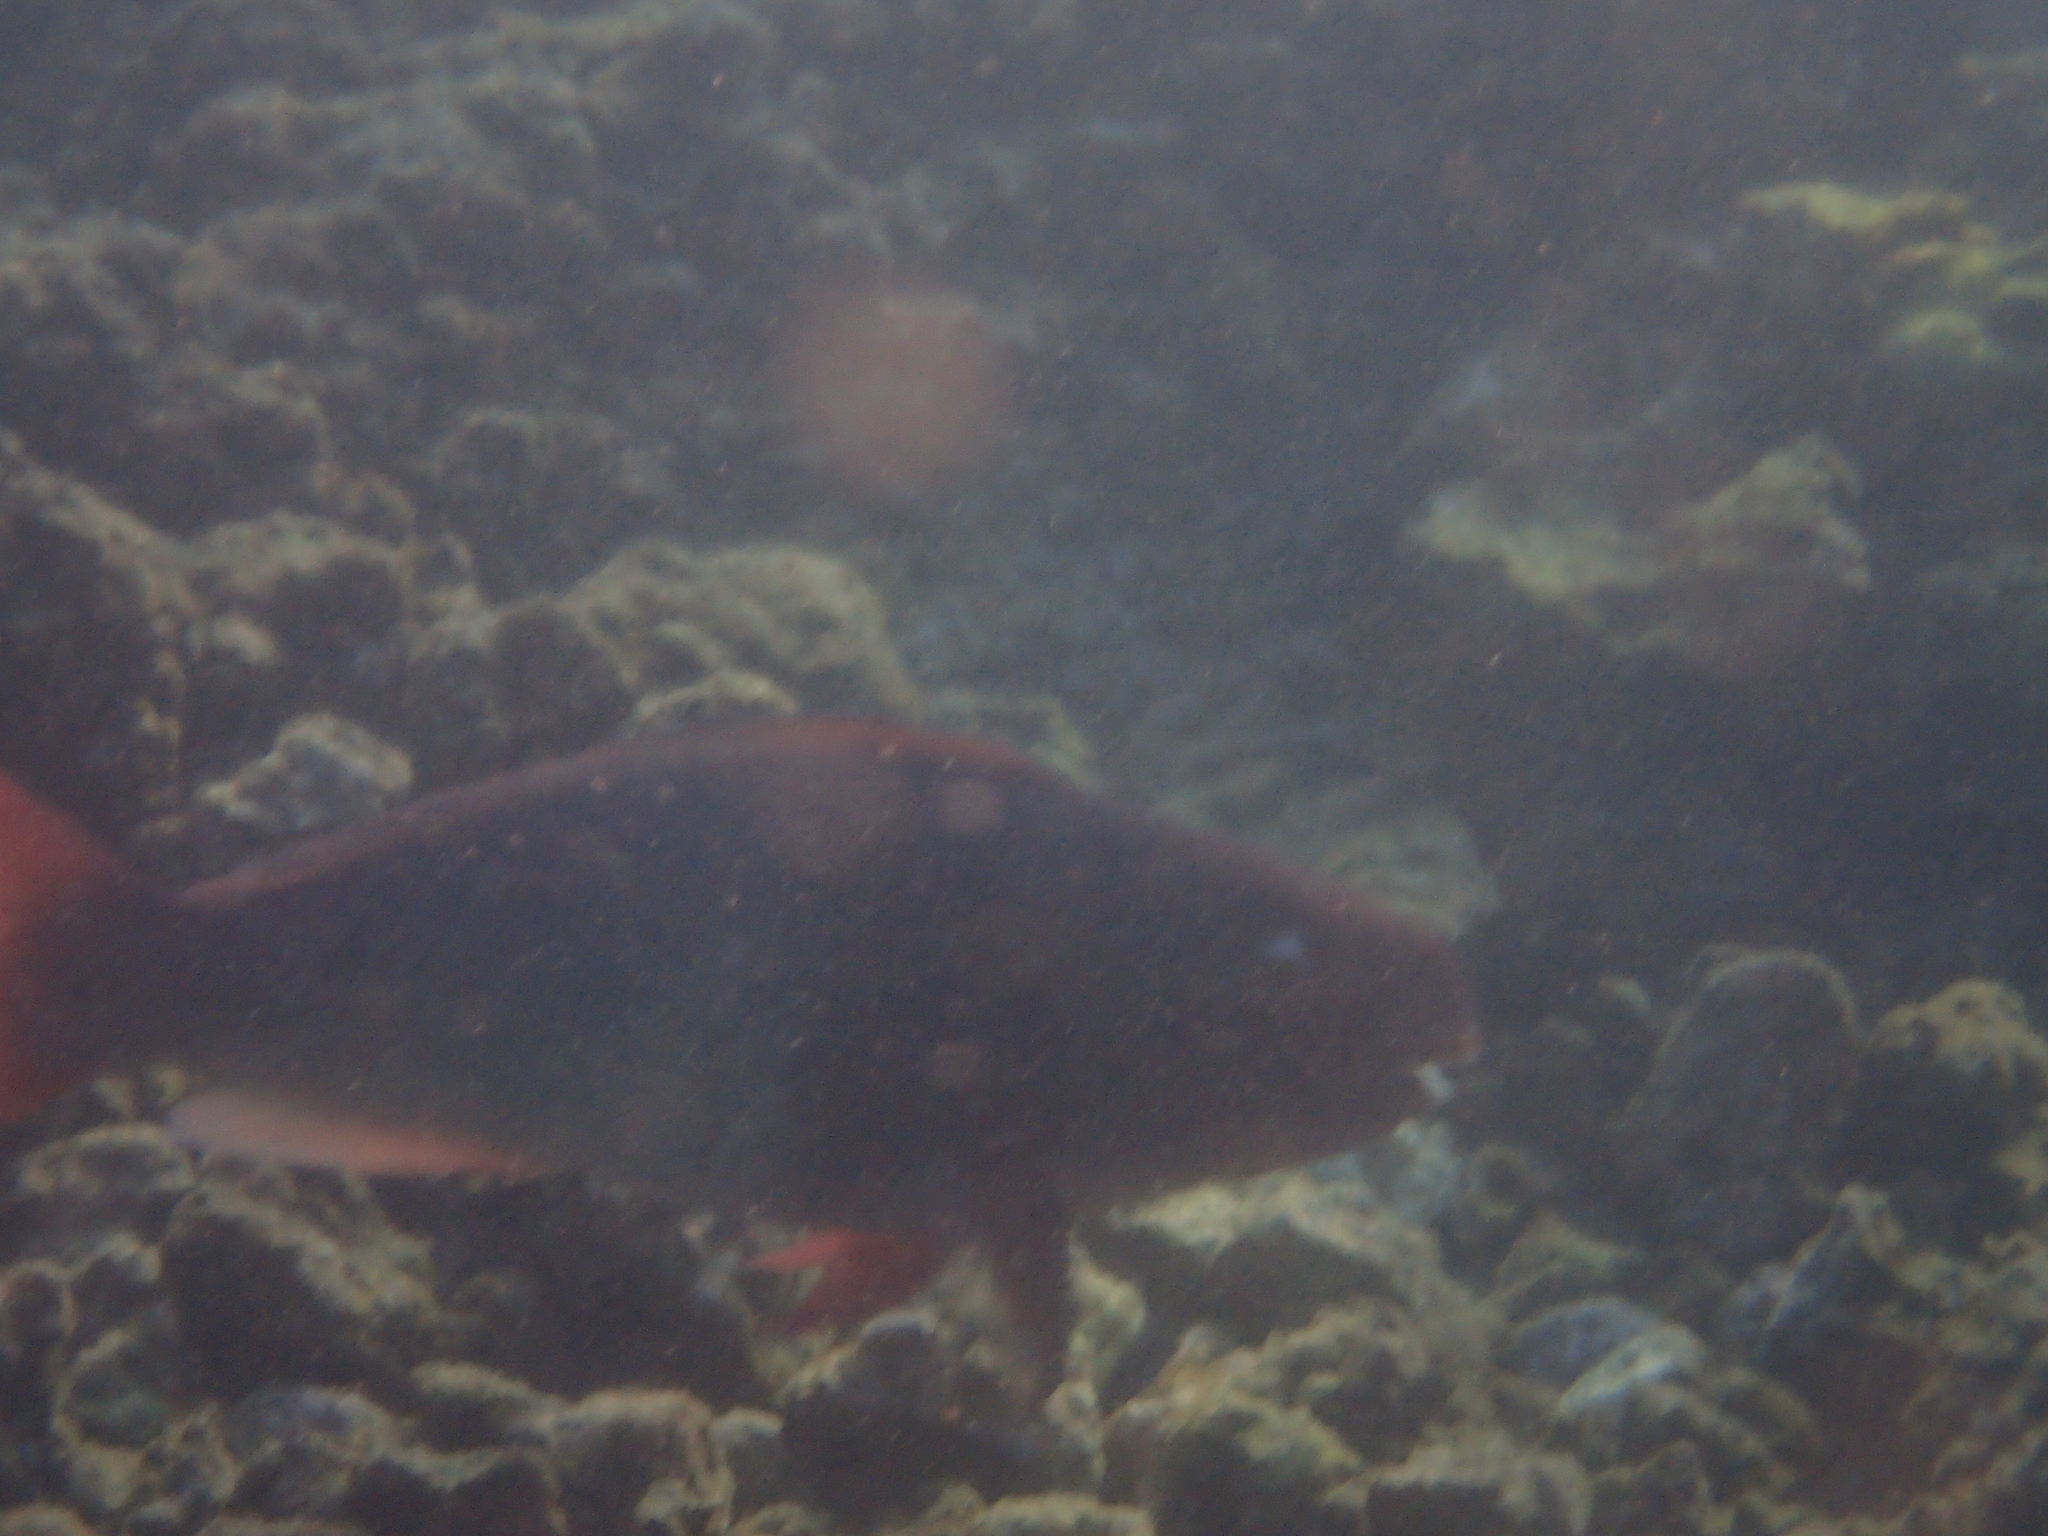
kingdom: Animalia
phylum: Chordata
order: Perciformes
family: Scaridae
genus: Scarus
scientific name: Scarus rubroviolaceus
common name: Ember parrotfish
